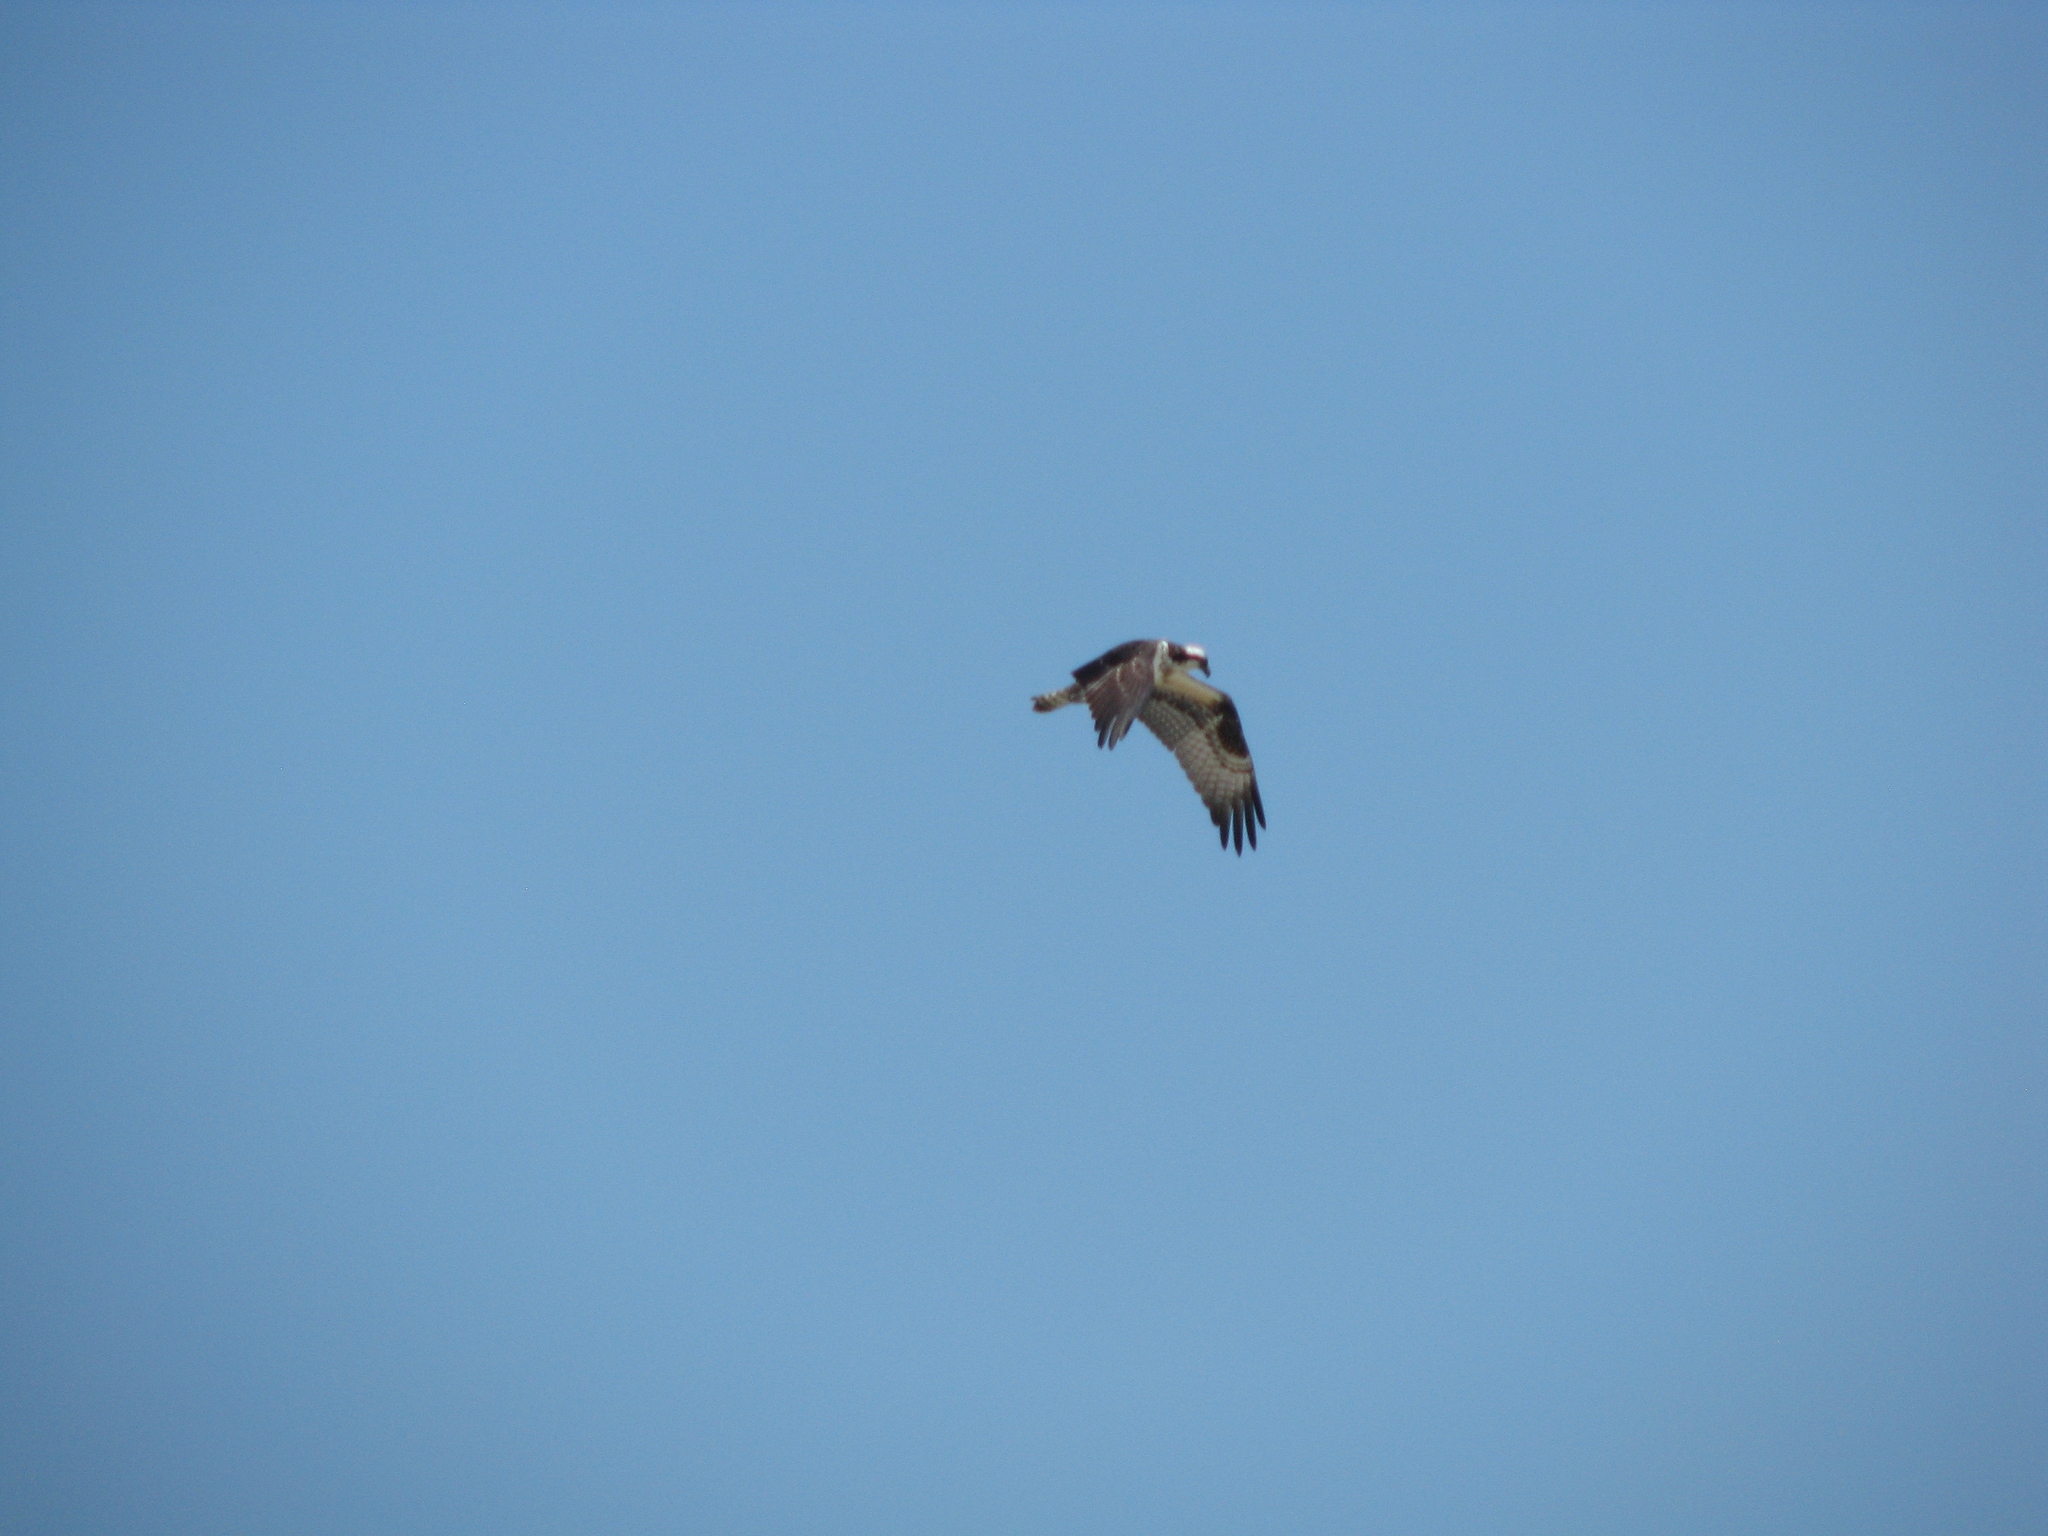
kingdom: Animalia
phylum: Chordata
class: Aves
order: Accipitriformes
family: Pandionidae
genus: Pandion
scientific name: Pandion haliaetus
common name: Osprey
